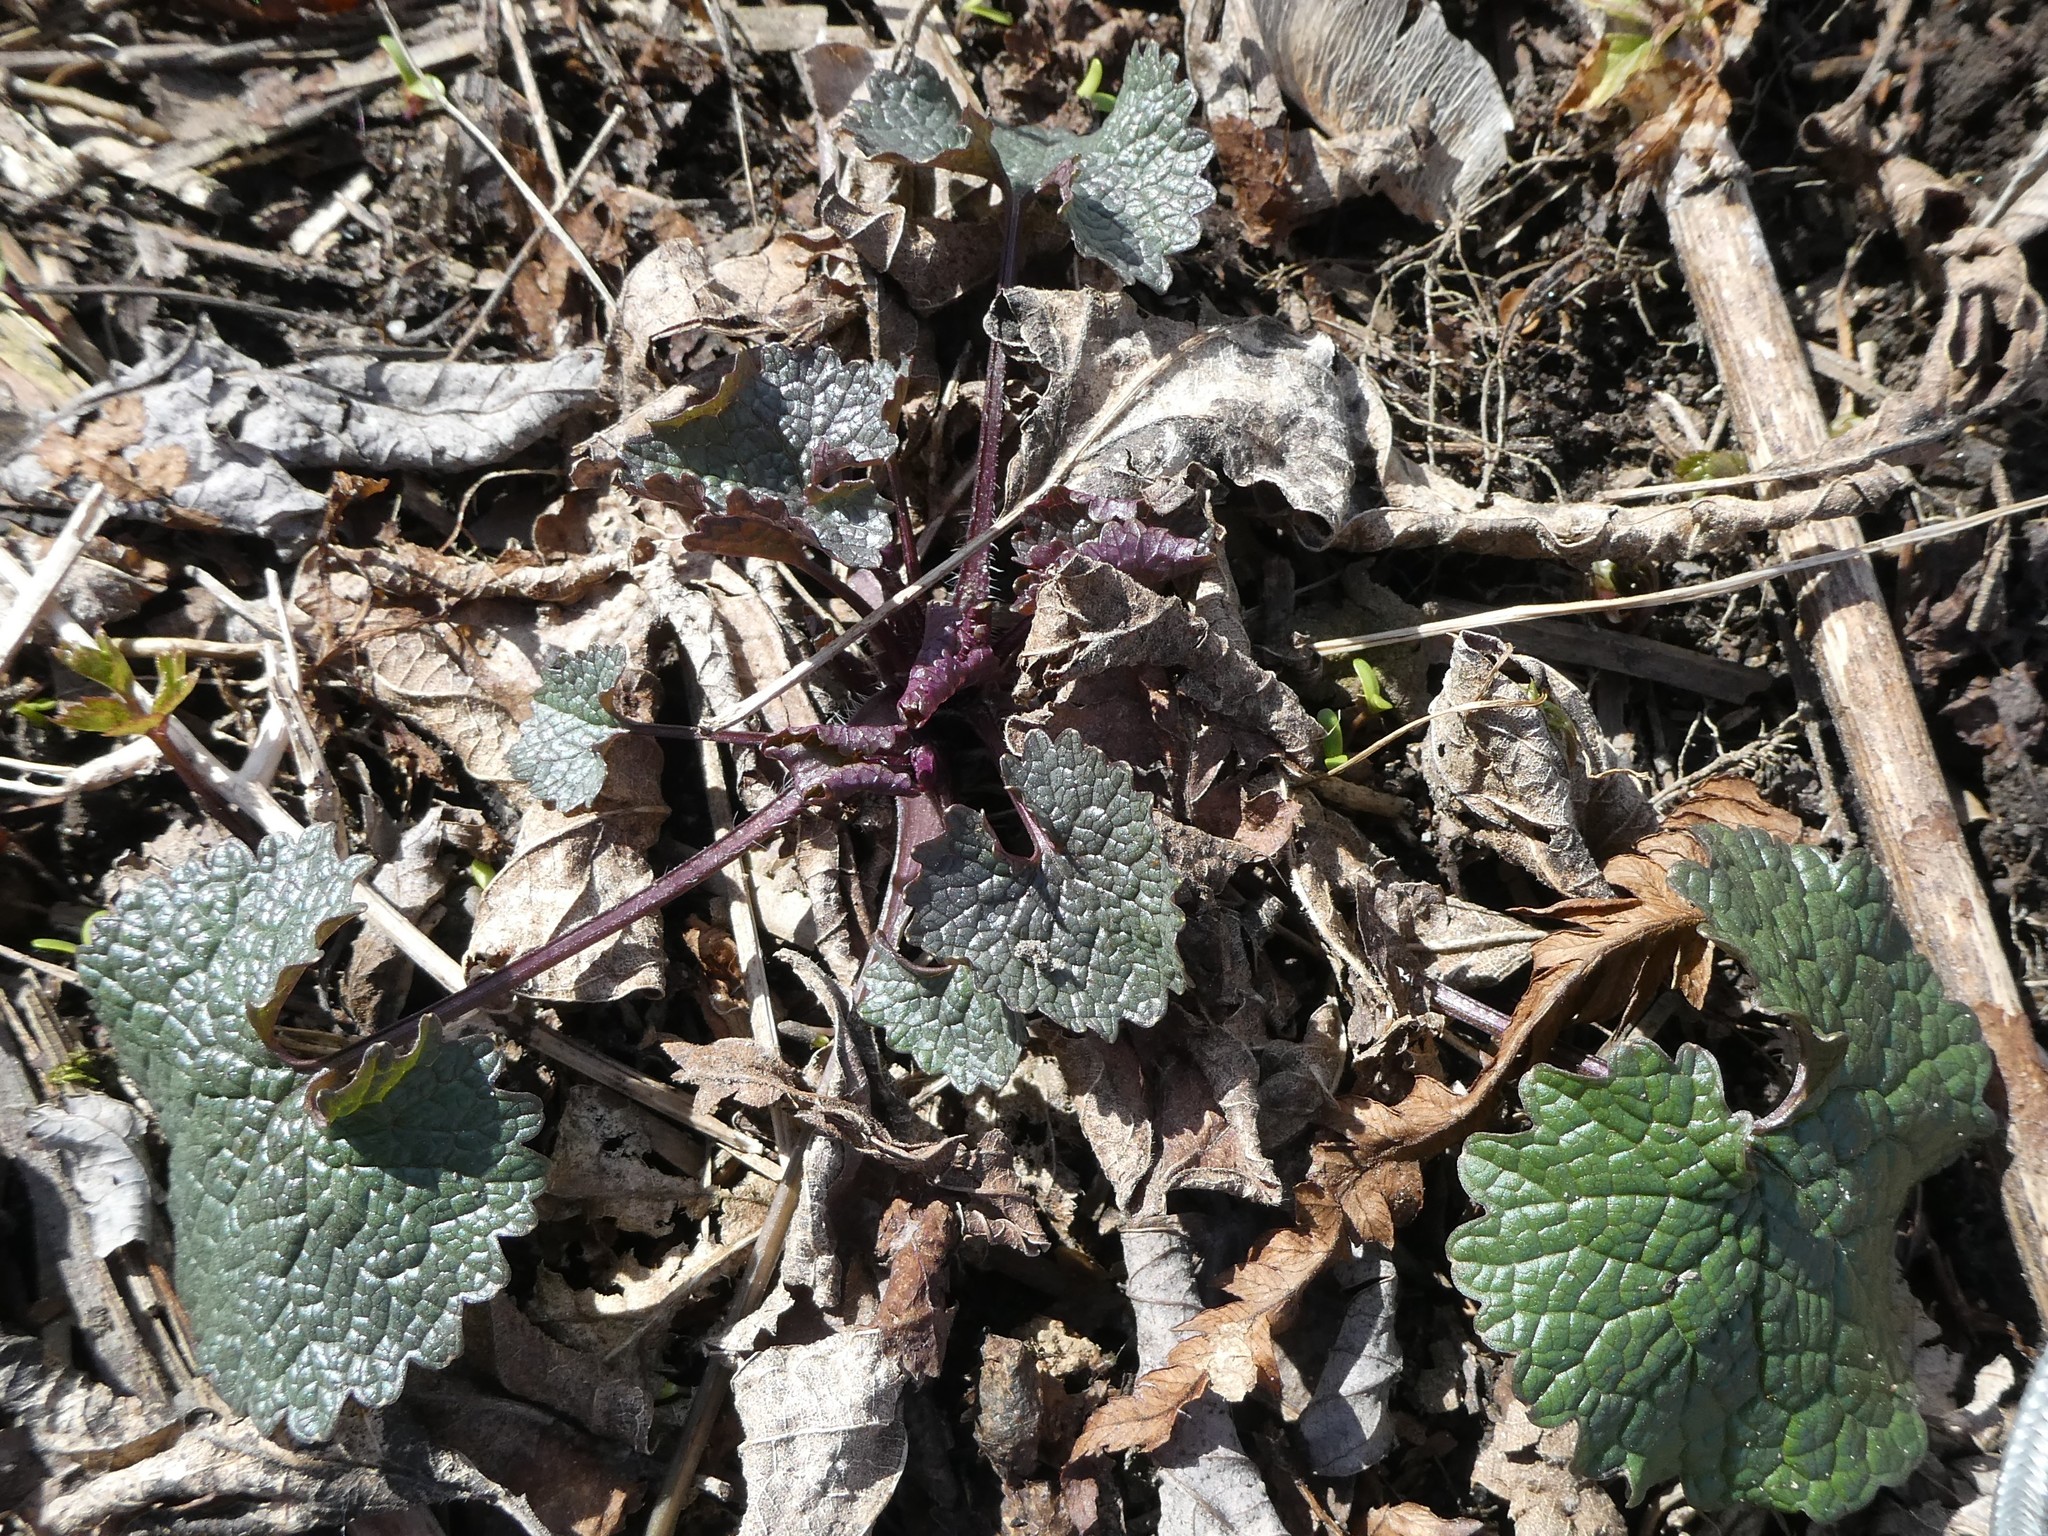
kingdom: Plantae
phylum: Tracheophyta
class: Magnoliopsida
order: Brassicales
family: Brassicaceae
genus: Alliaria
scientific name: Alliaria petiolata
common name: Garlic mustard
